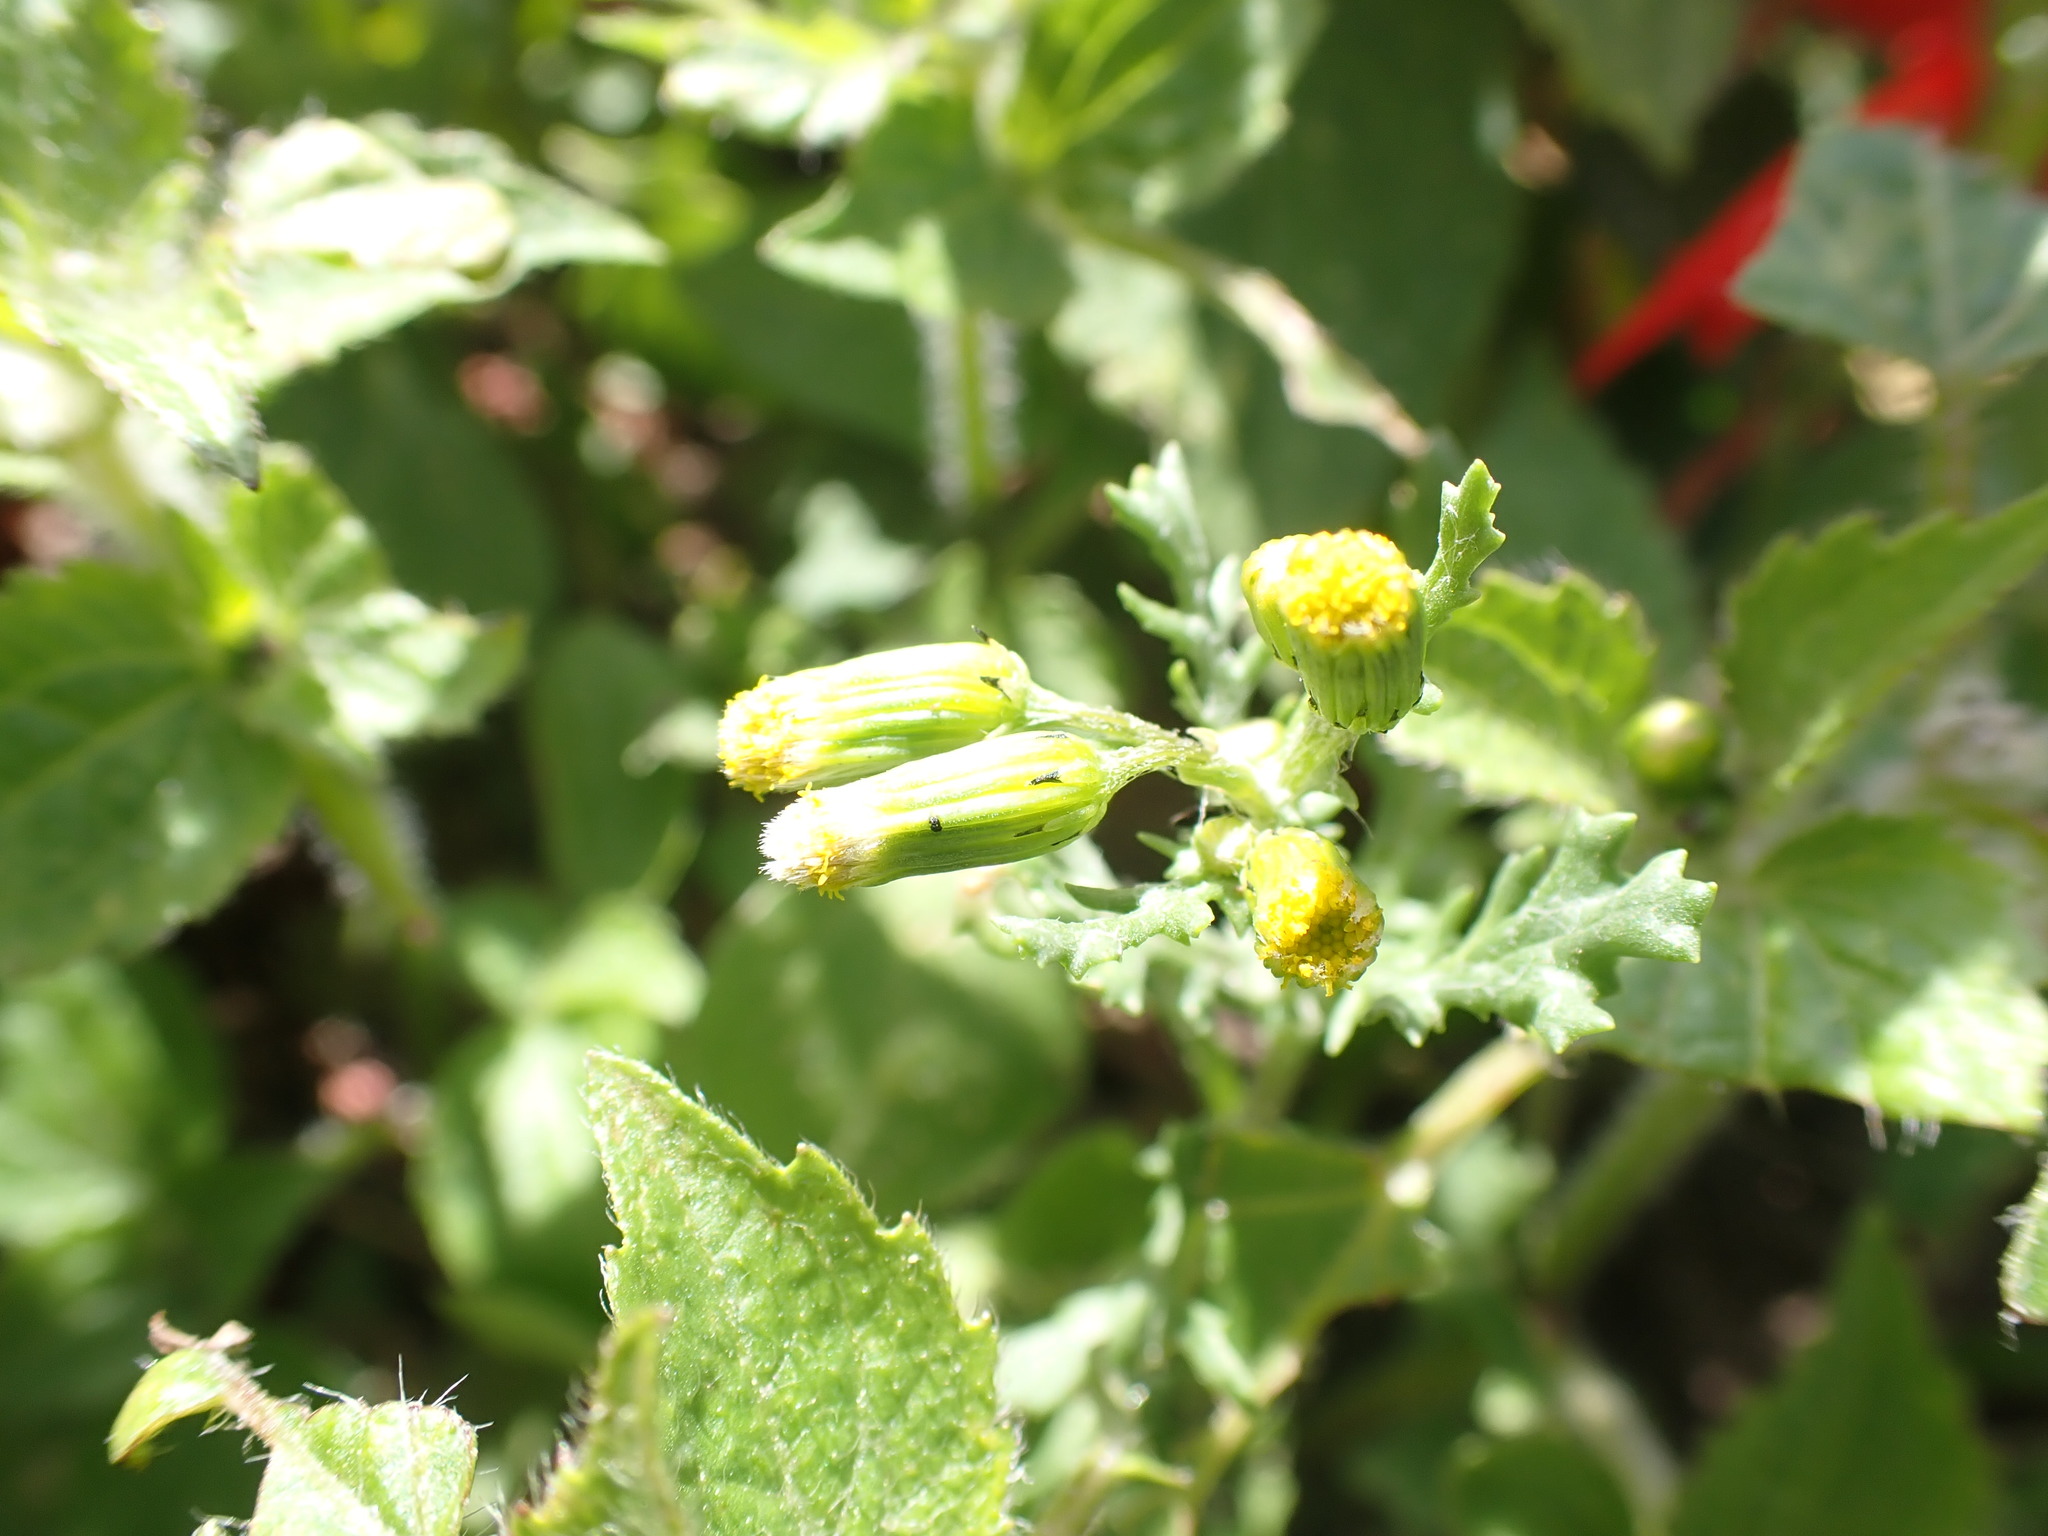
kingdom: Plantae
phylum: Tracheophyta
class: Magnoliopsida
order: Asterales
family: Asteraceae
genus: Senecio
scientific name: Senecio vulgaris
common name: Old-man-in-the-spring
